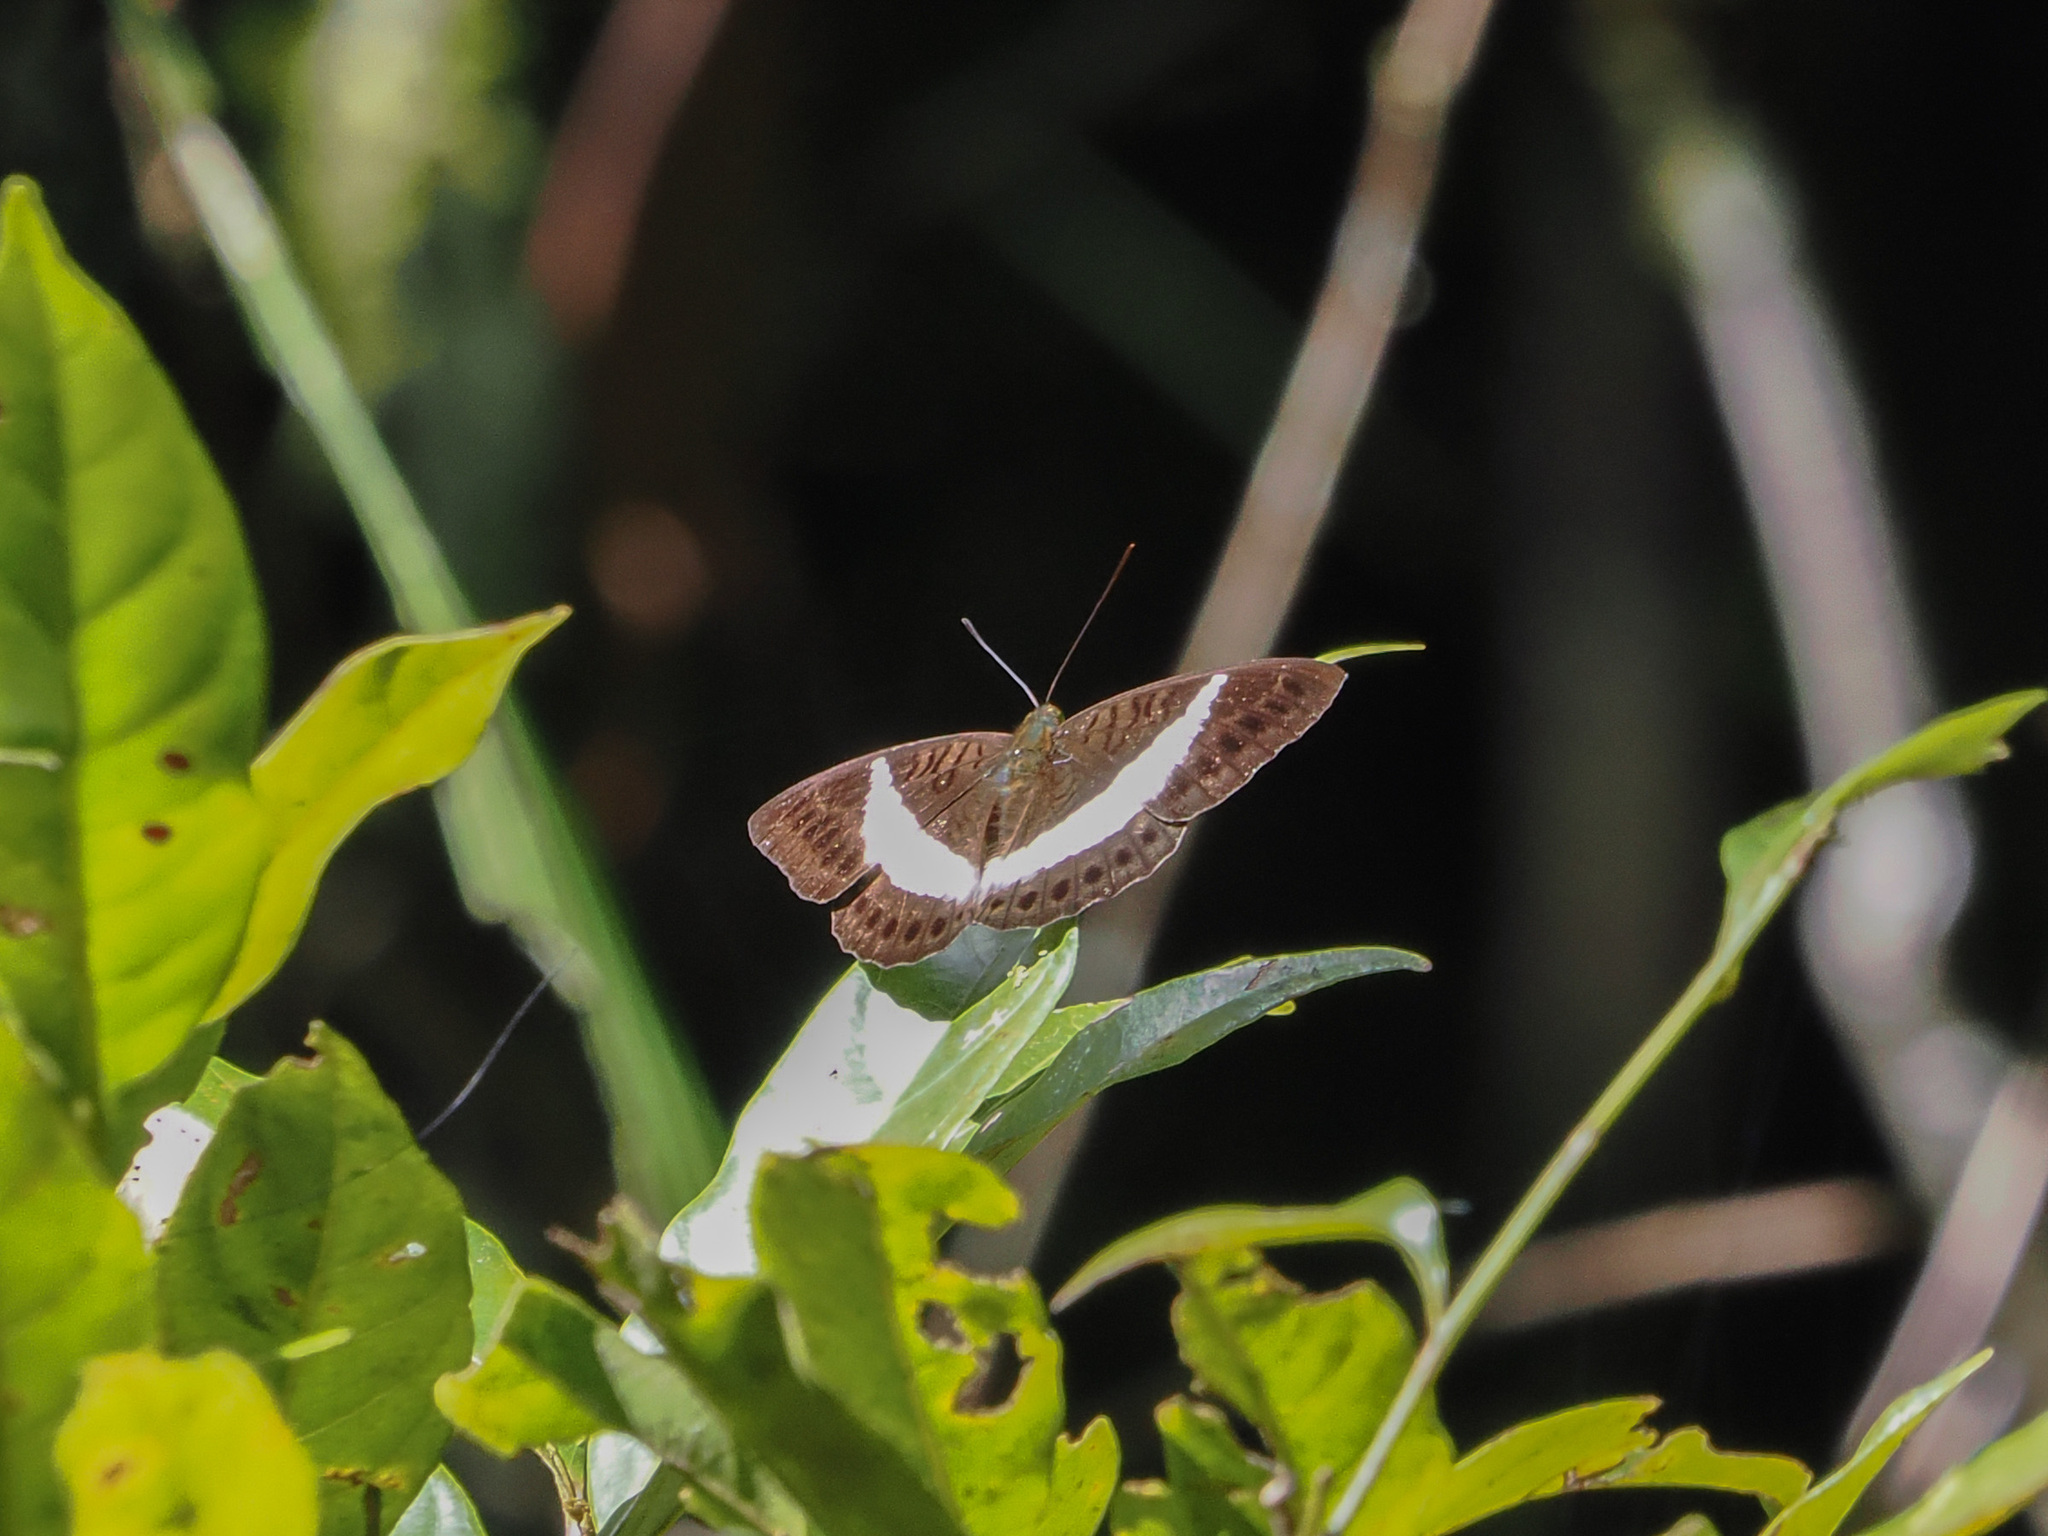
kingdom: Animalia
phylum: Arthropoda
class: Insecta
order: Lepidoptera
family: Nymphalidae
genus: Tanaecia
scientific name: Tanaecia amisa
